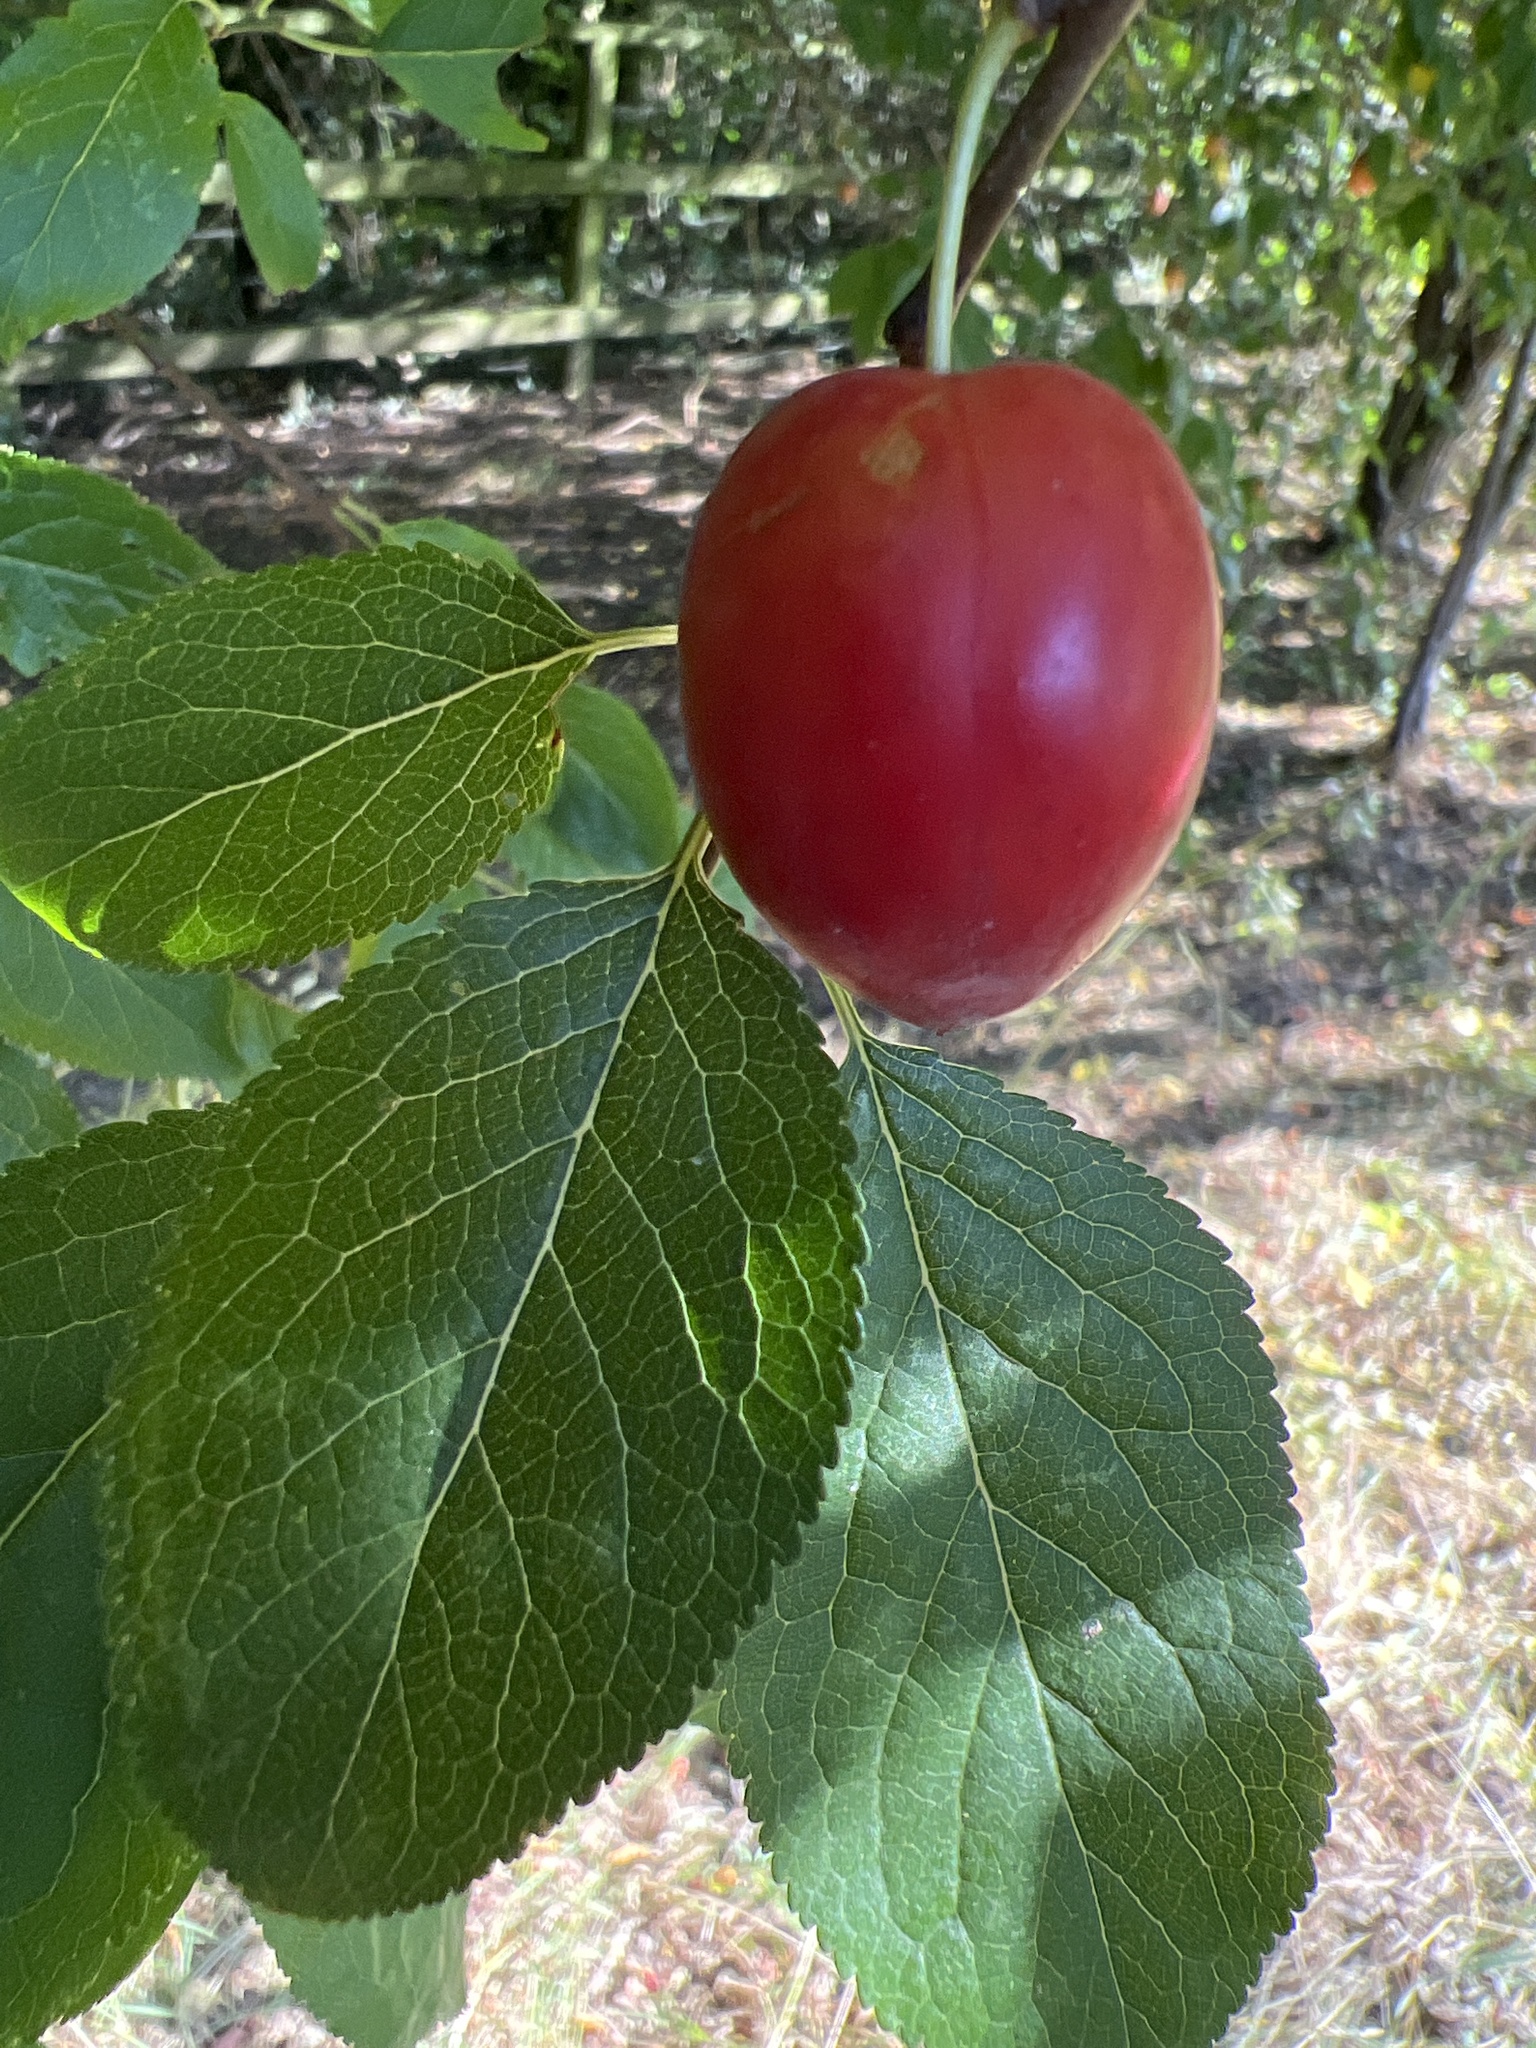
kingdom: Plantae
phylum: Tracheophyta
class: Magnoliopsida
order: Rosales
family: Rosaceae
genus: Prunus
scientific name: Prunus domestica
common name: Wild plum
